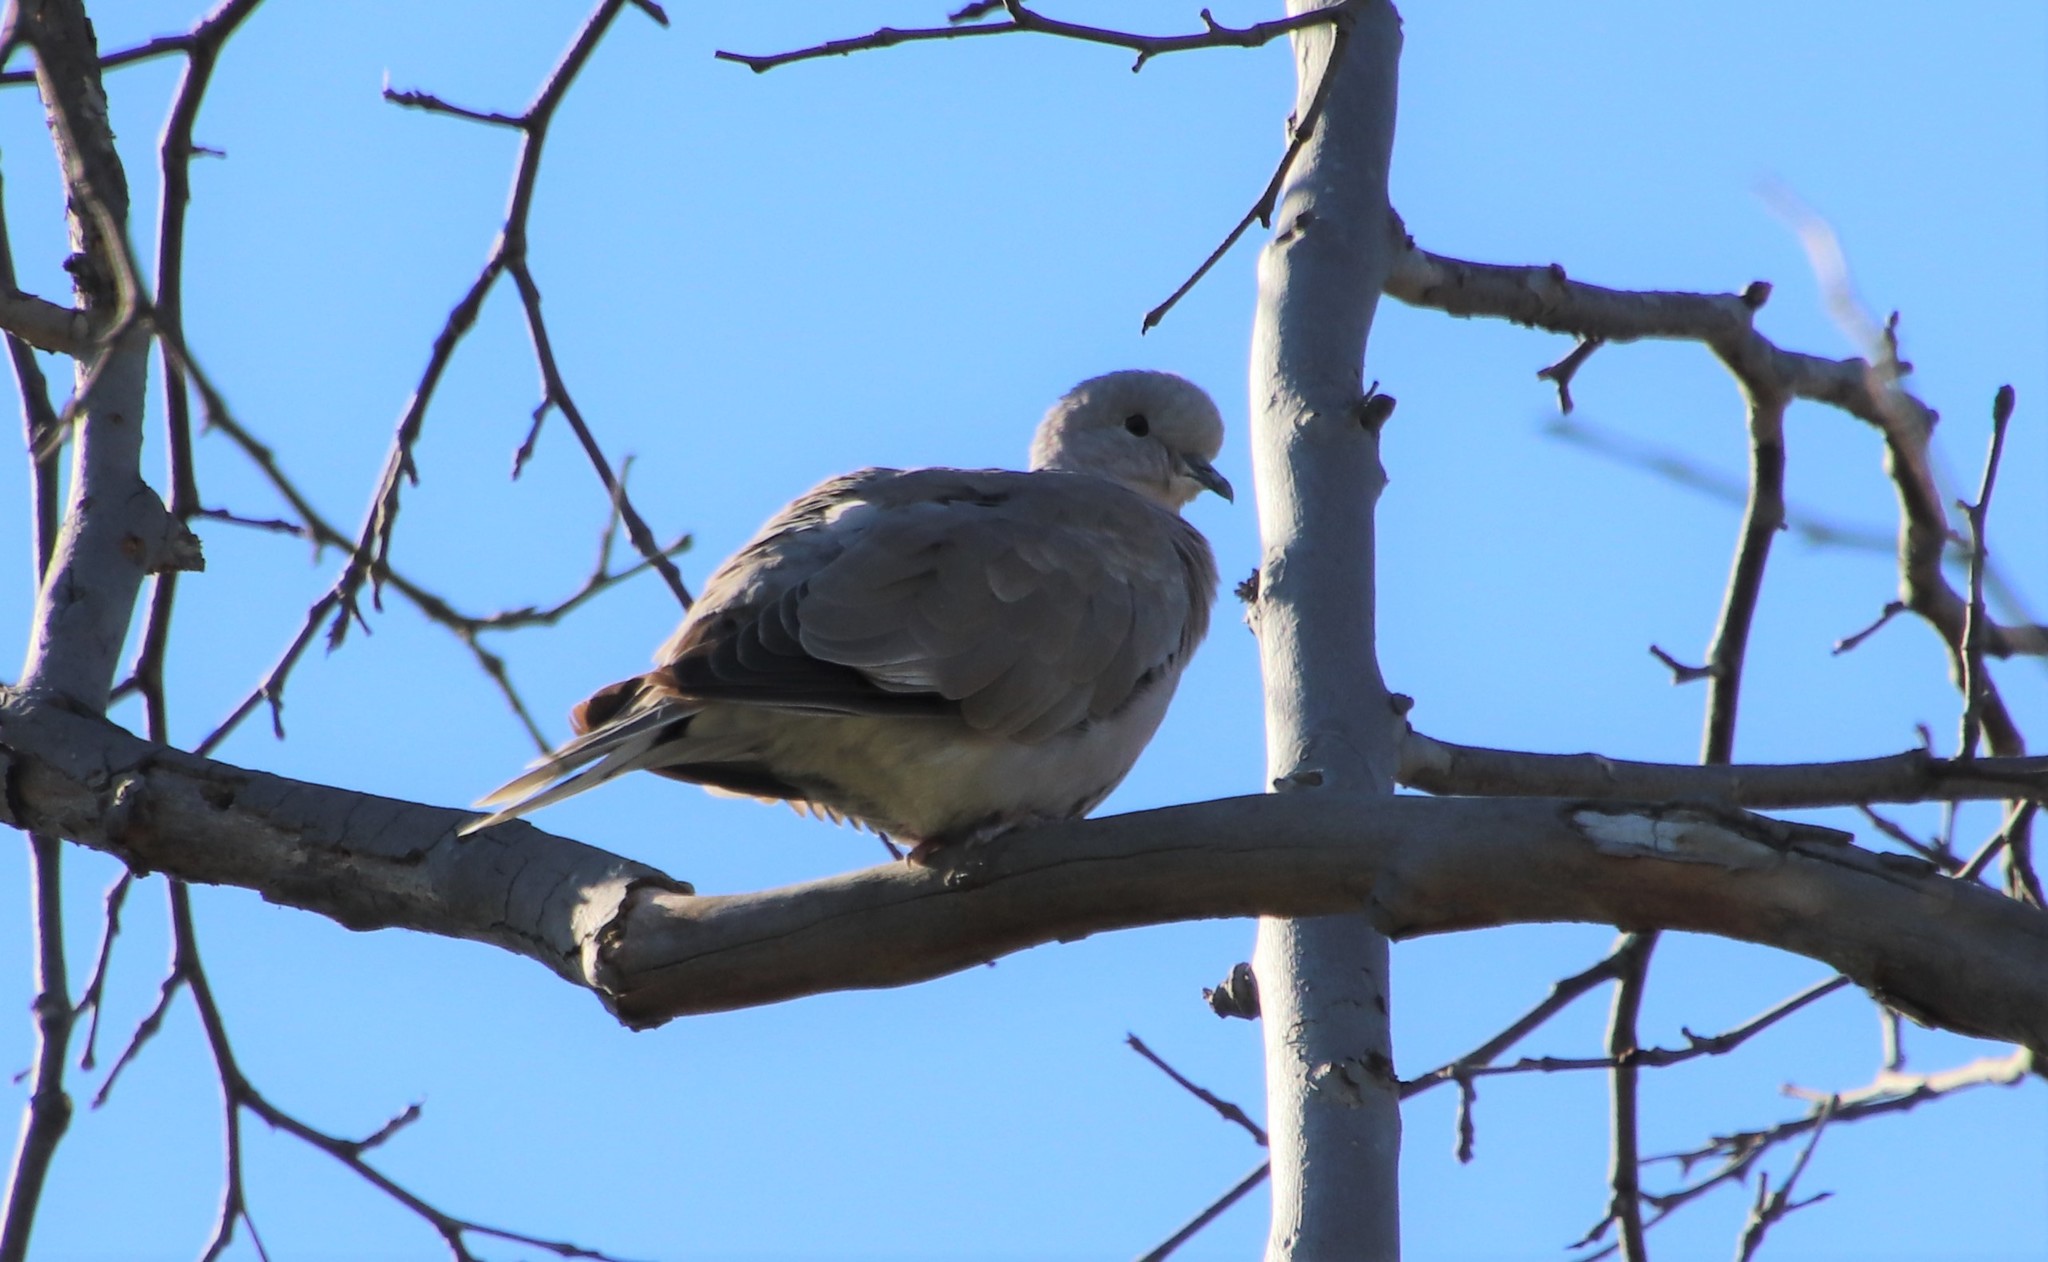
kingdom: Animalia
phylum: Chordata
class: Aves
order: Columbiformes
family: Columbidae
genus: Streptopelia
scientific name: Streptopelia decaocto
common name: Eurasian collared dove
